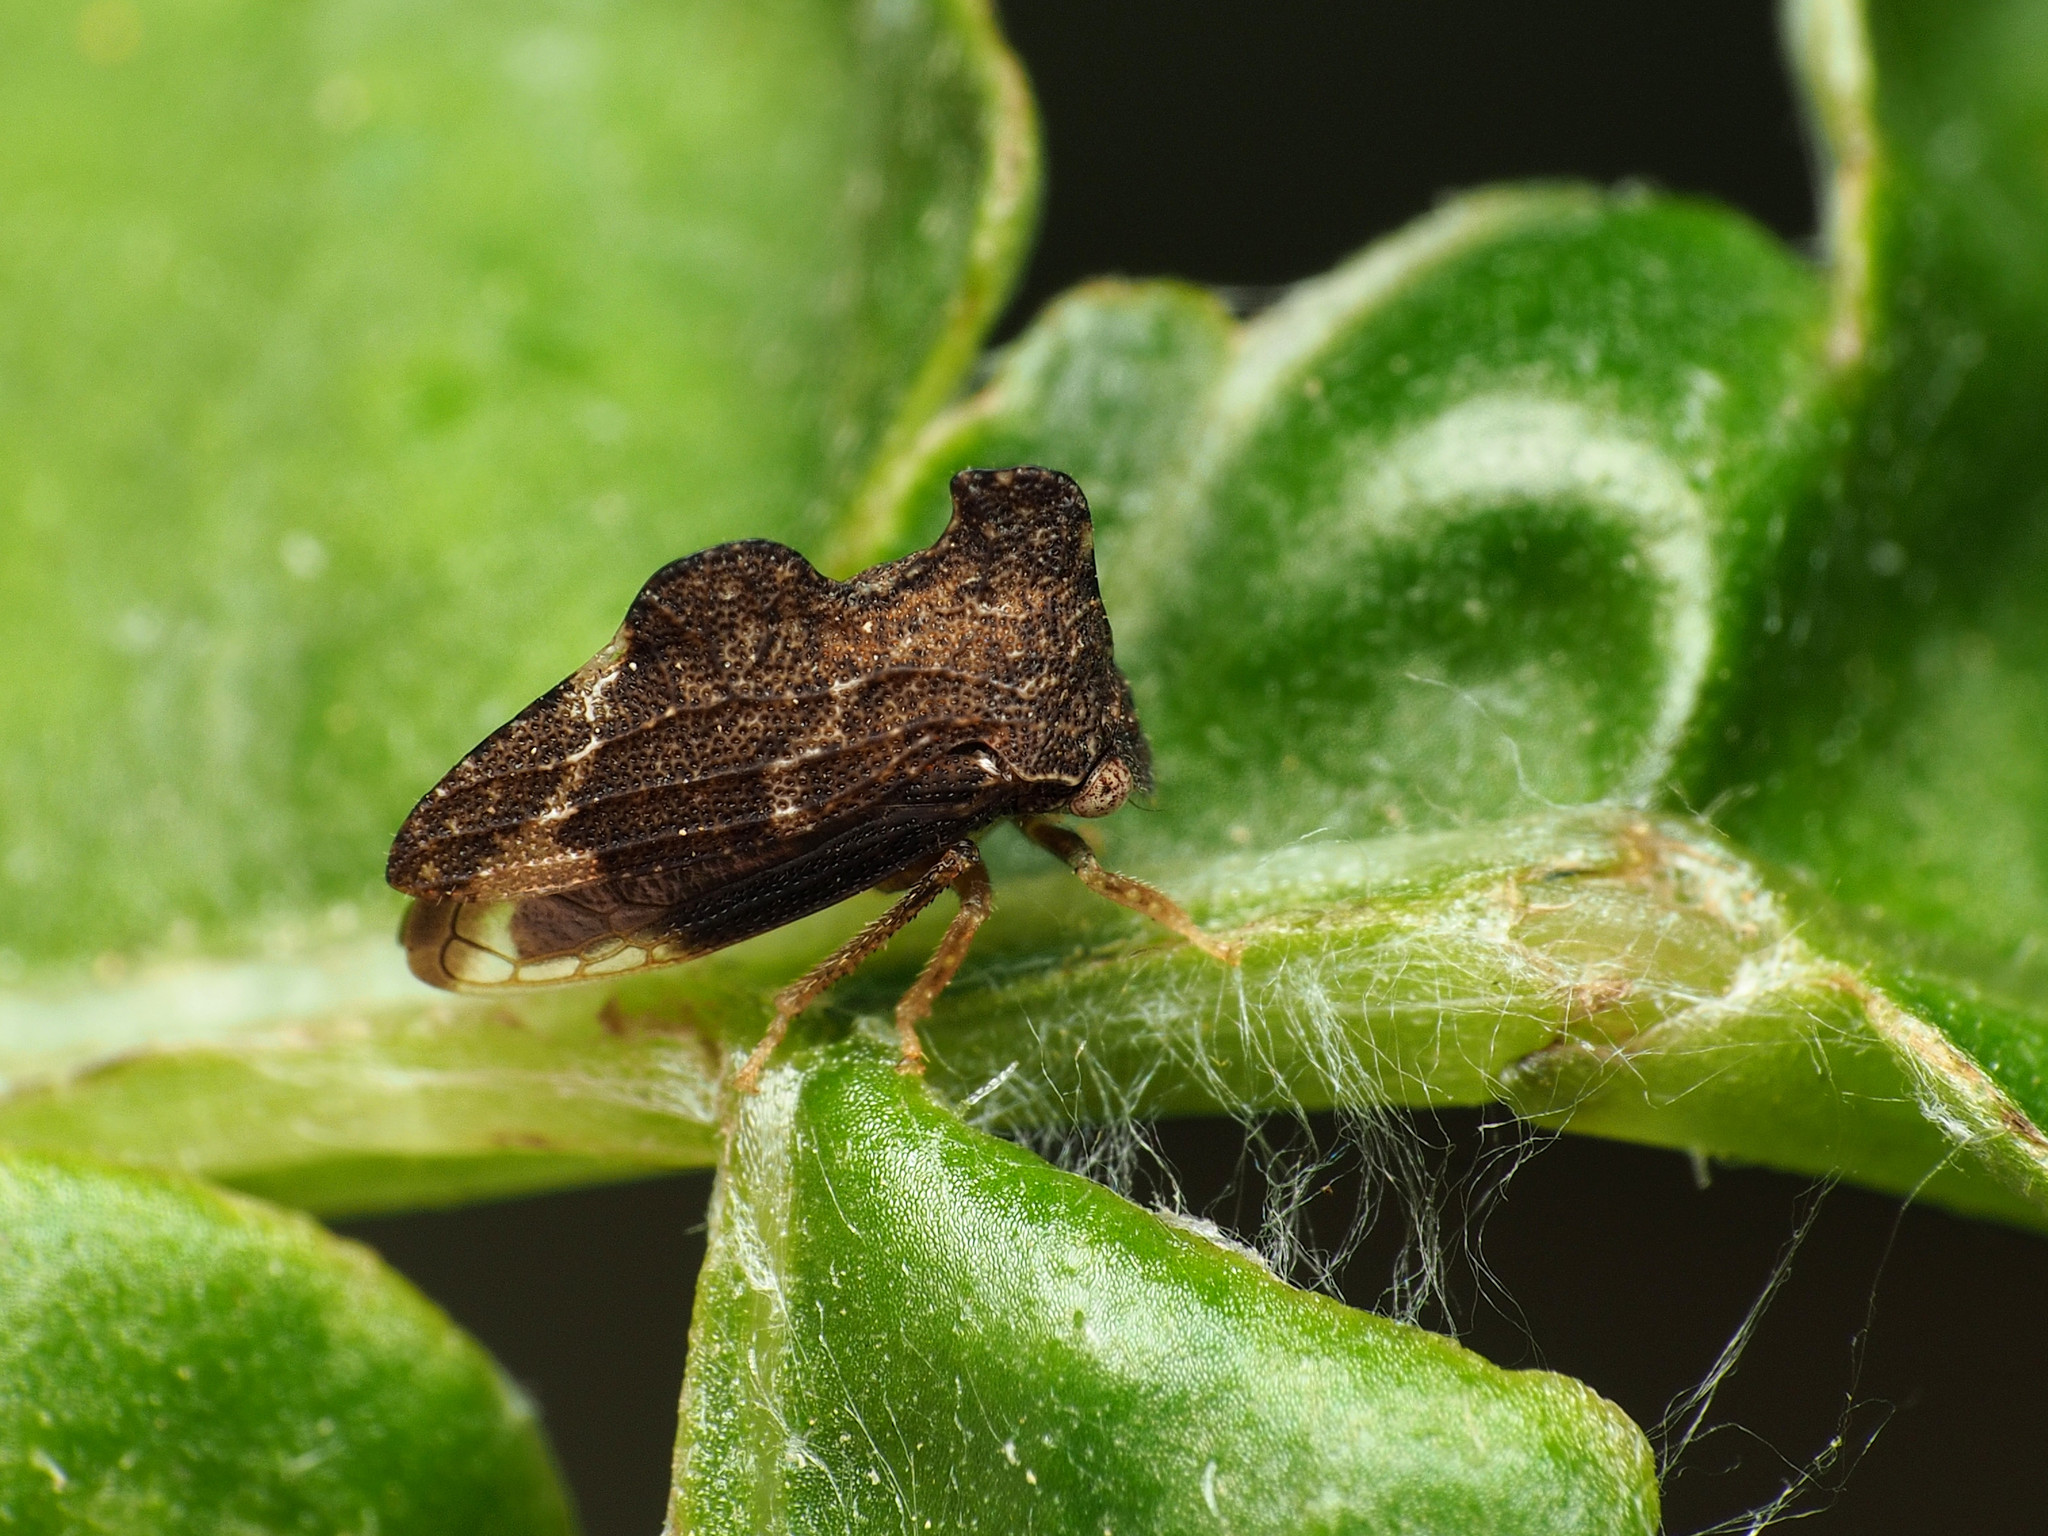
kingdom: Animalia
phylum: Arthropoda
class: Insecta
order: Hemiptera
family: Membracidae
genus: Entylia
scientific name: Entylia carinata
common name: Keeled treehopper
